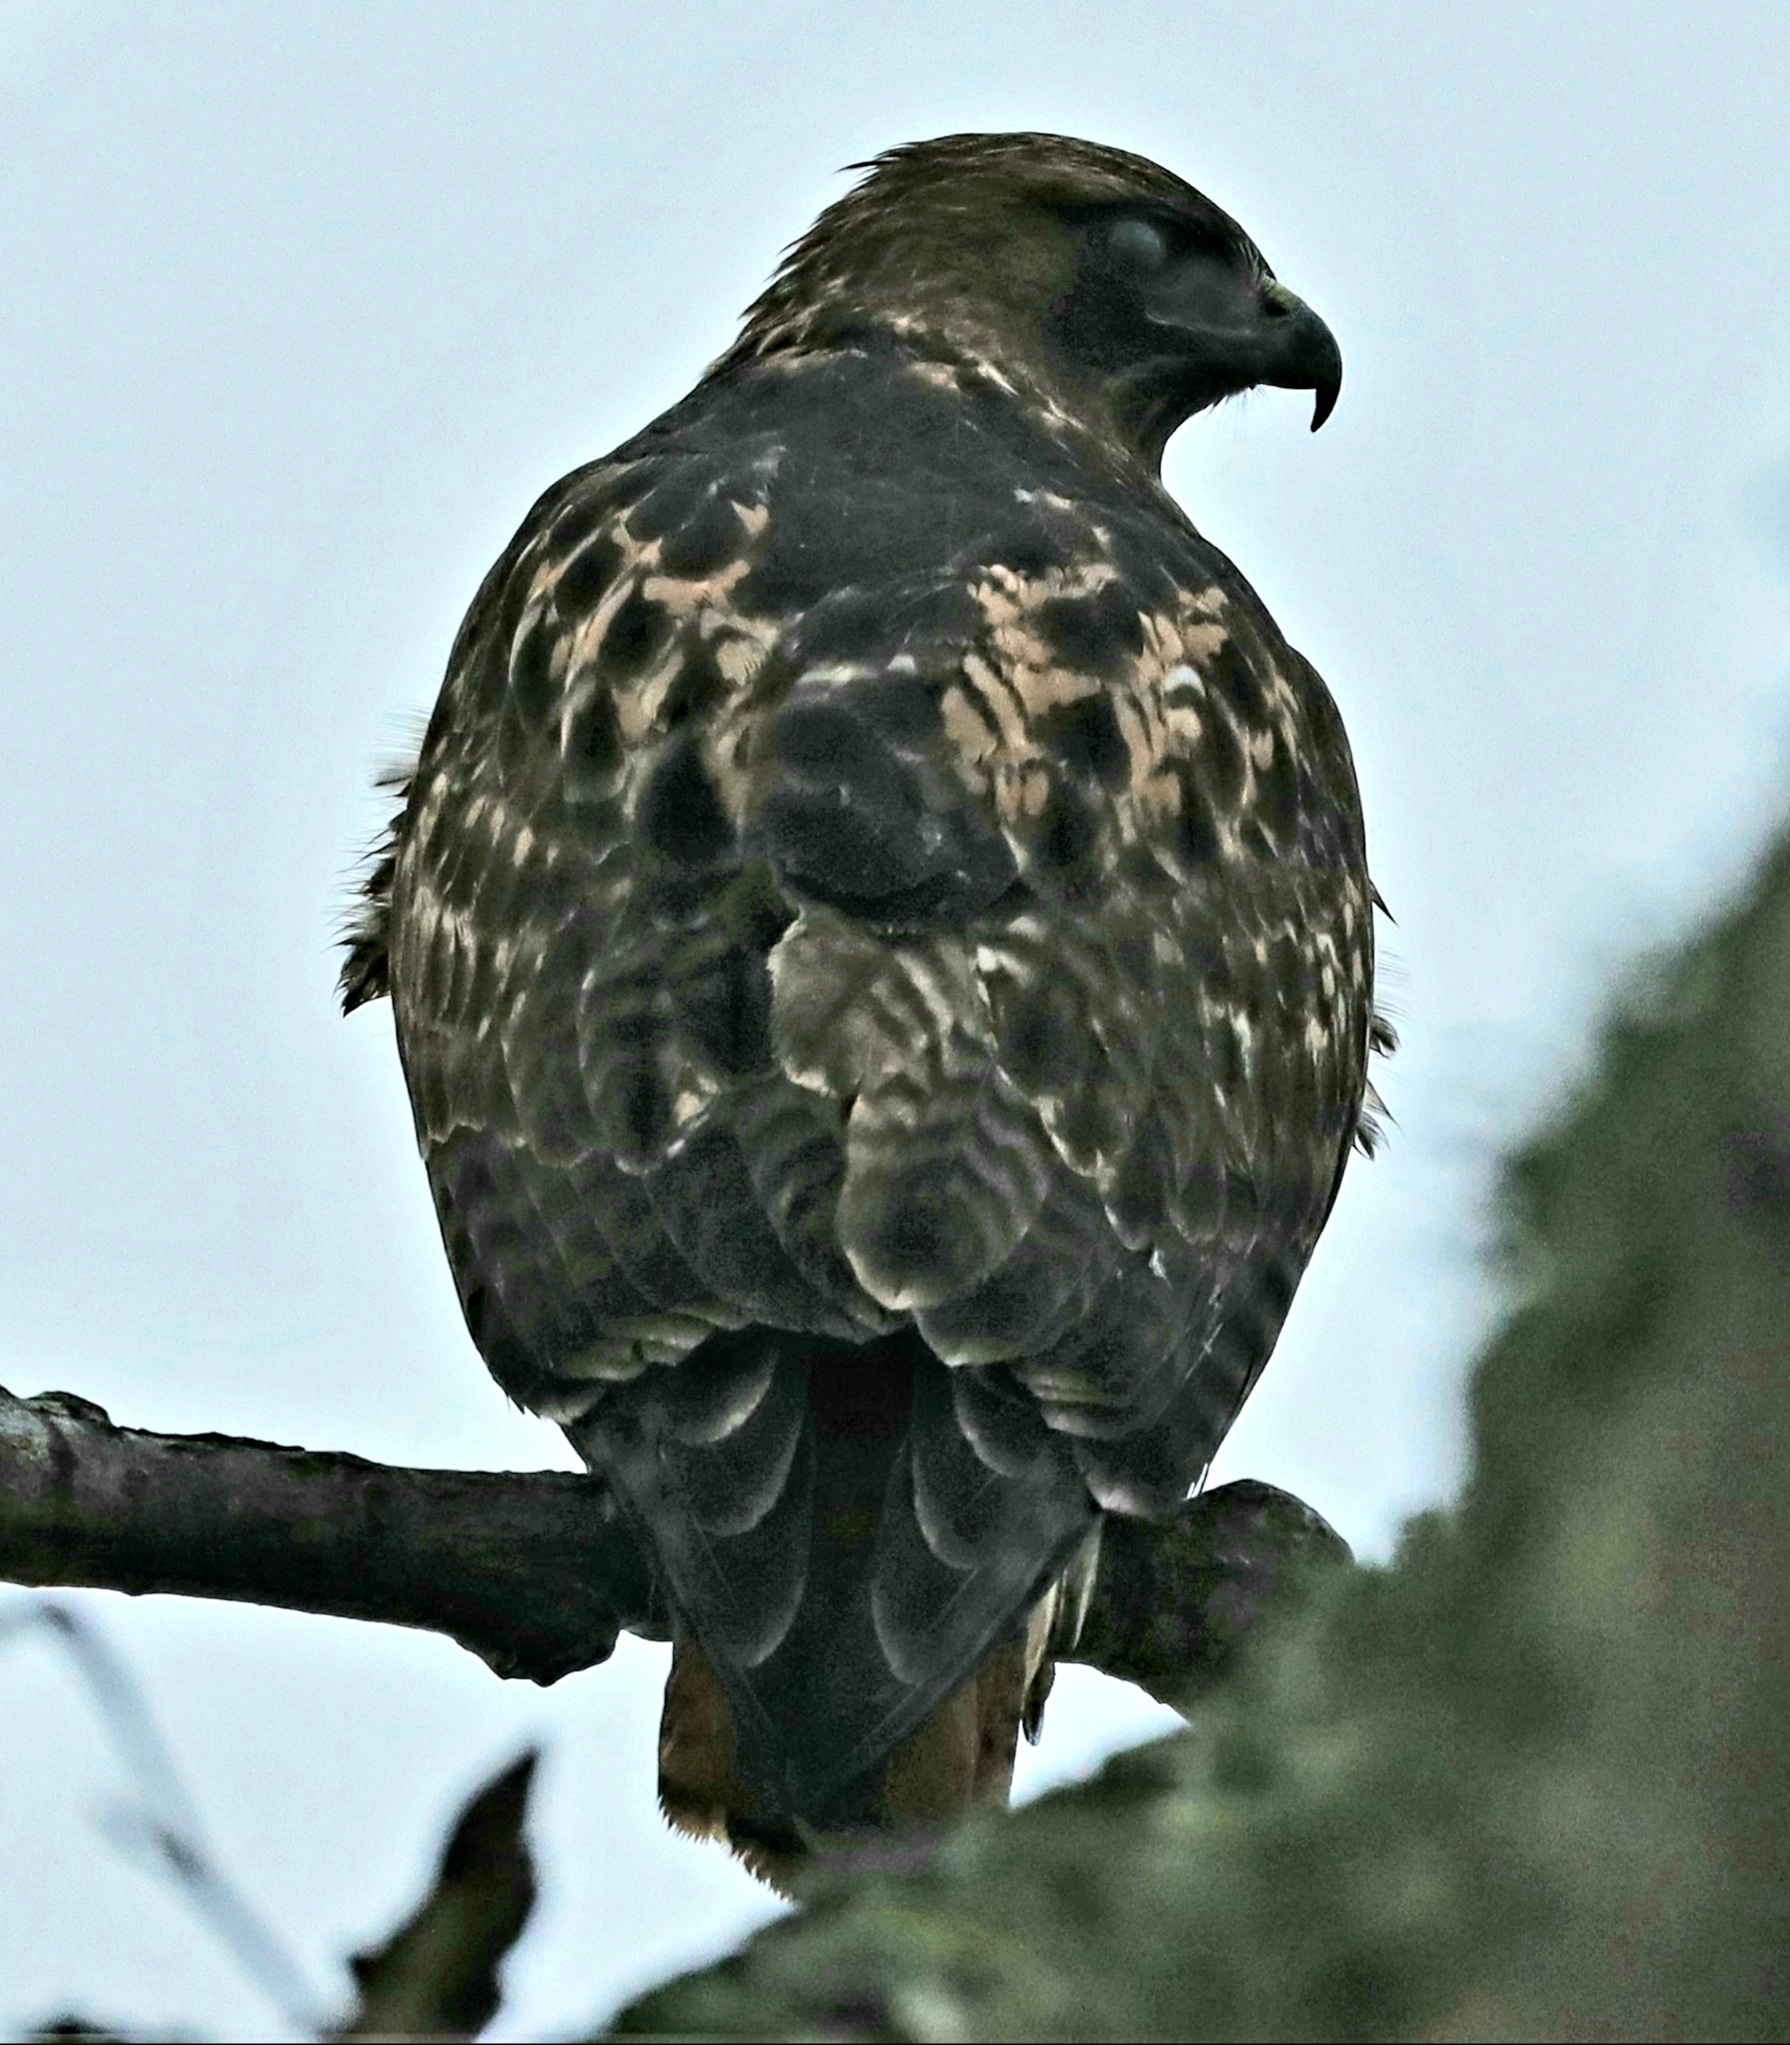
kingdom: Animalia
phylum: Chordata
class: Aves
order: Accipitriformes
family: Accipitridae
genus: Buteo
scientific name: Buteo jamaicensis
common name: Red-tailed hawk
